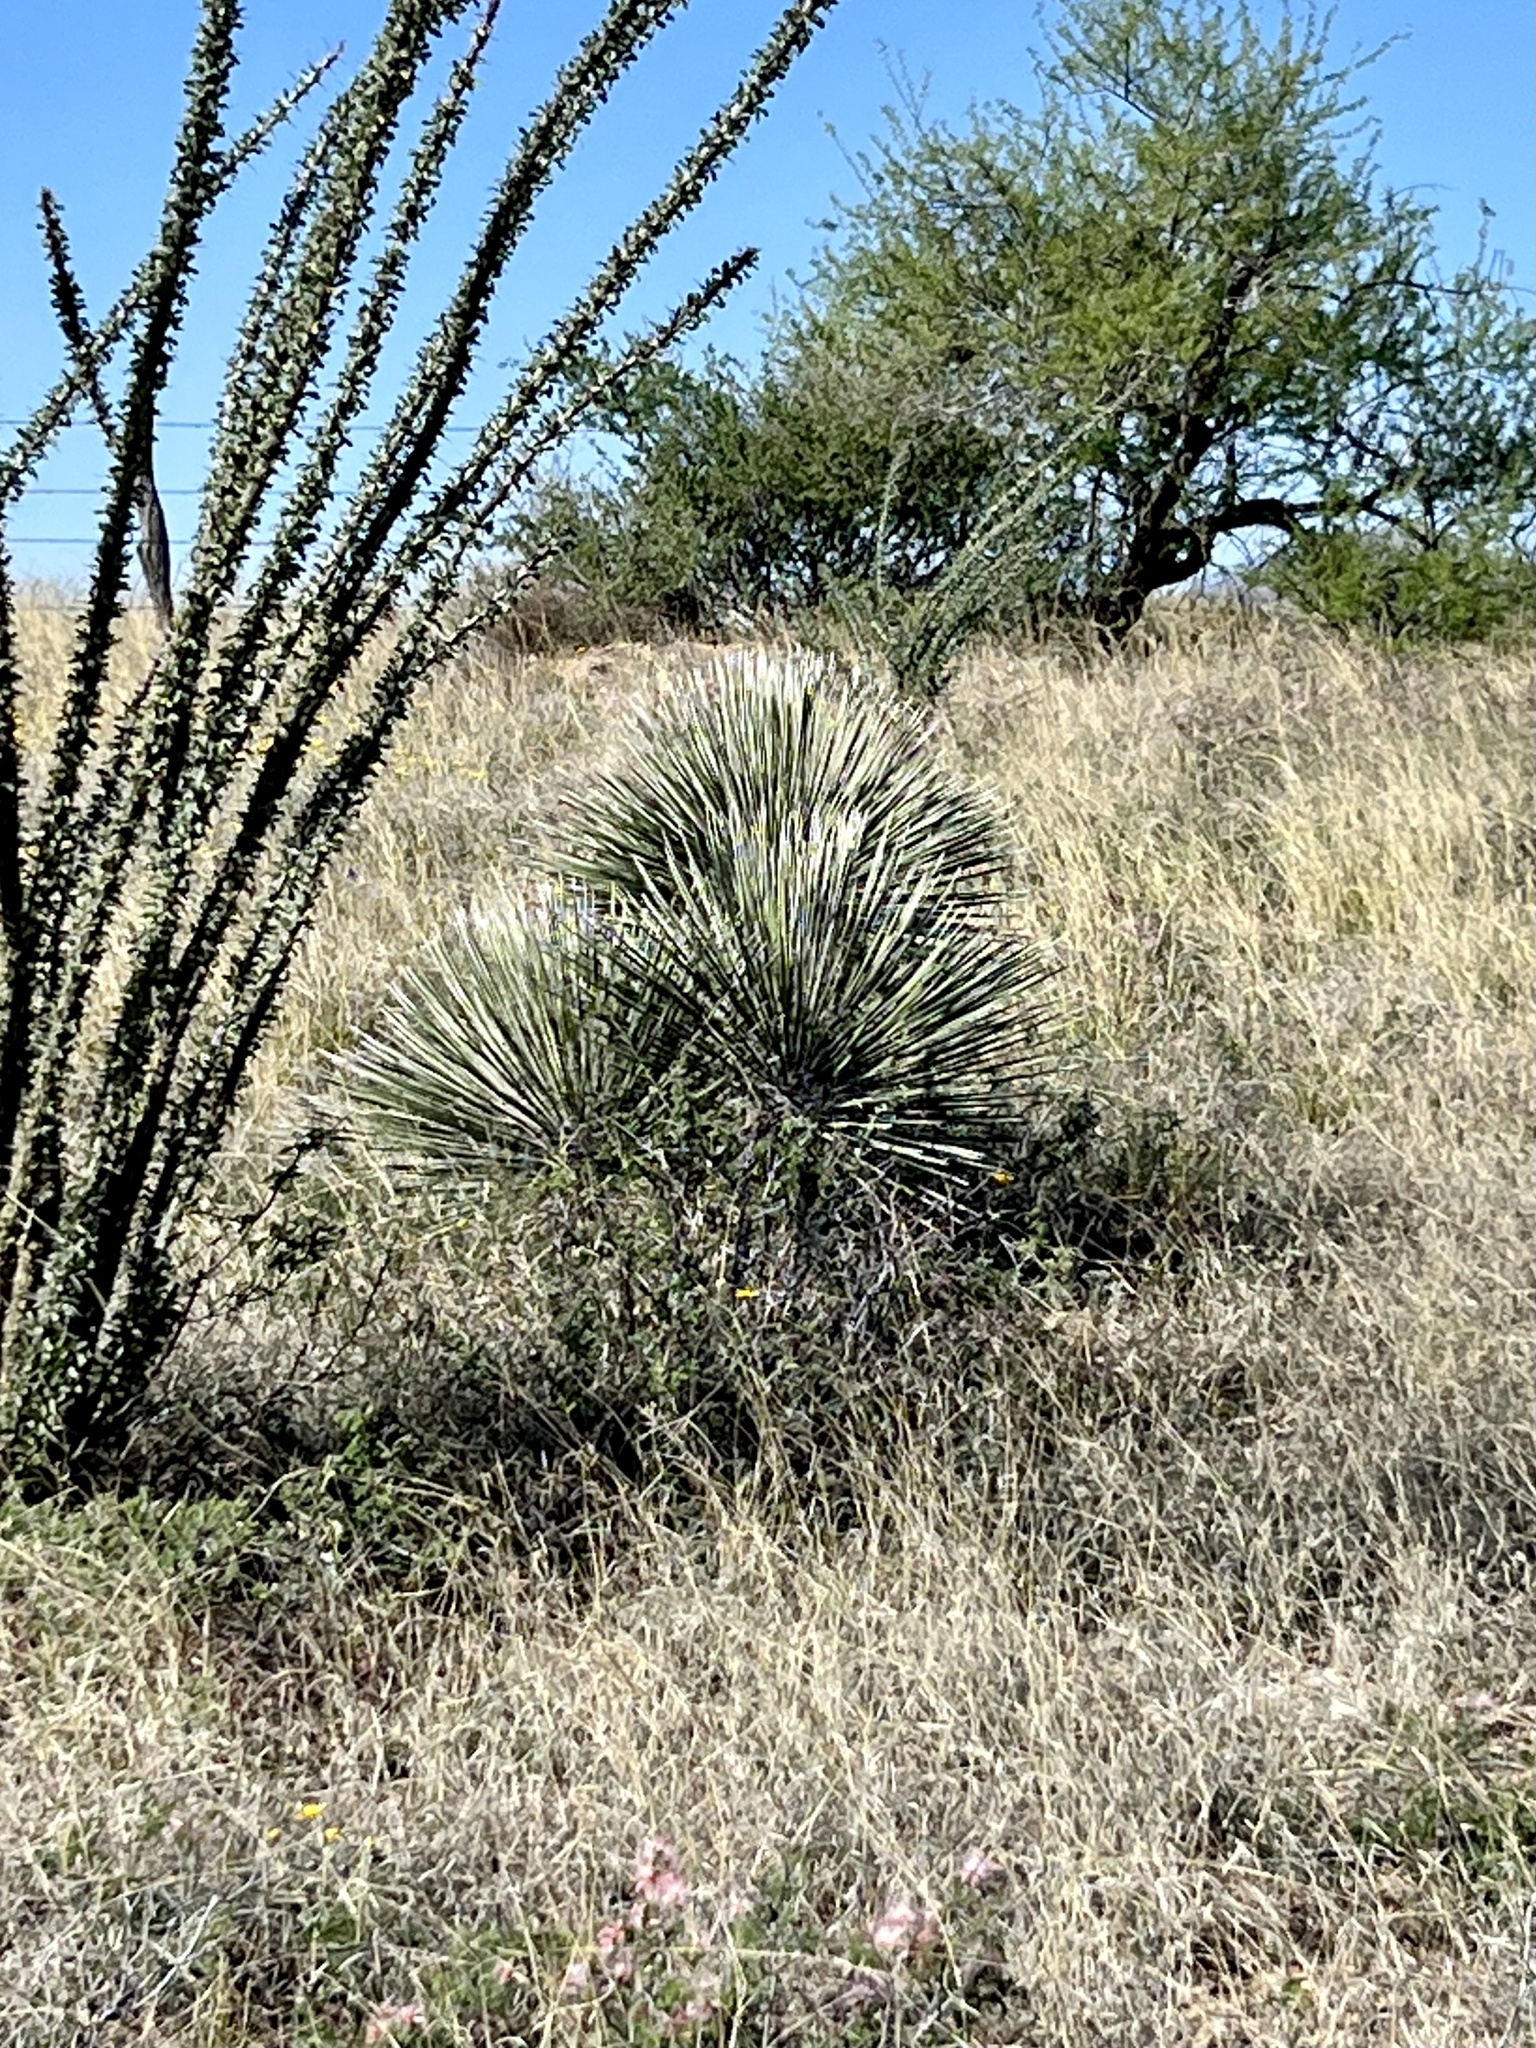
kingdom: Plantae
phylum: Tracheophyta
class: Liliopsida
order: Asparagales
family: Asparagaceae
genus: Yucca
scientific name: Yucca elata
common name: Palmella
